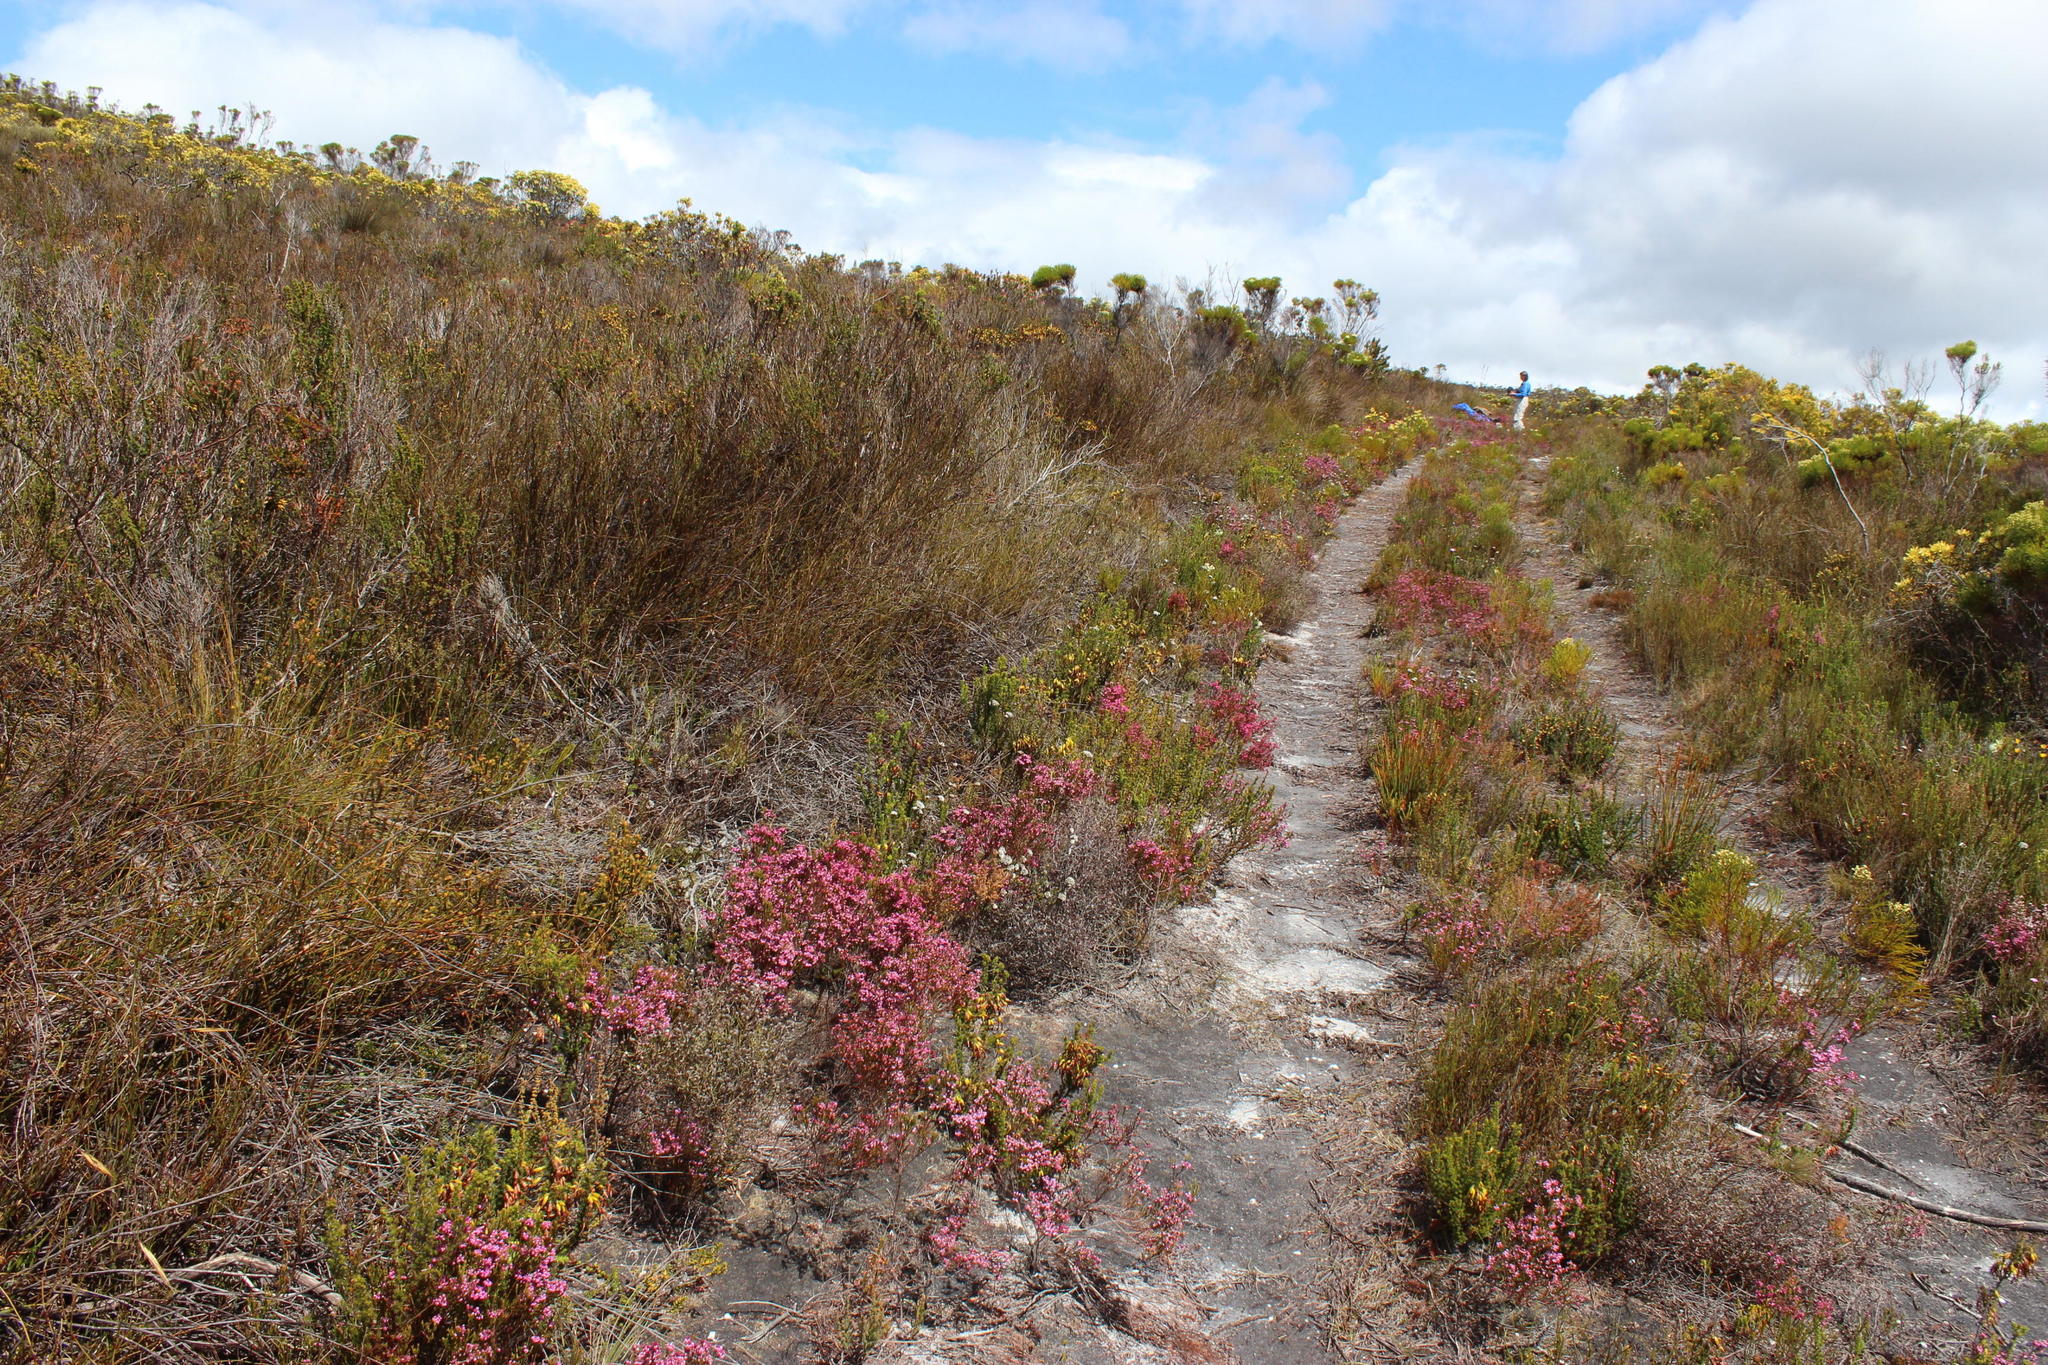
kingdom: Plantae
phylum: Tracheophyta
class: Magnoliopsida
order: Ericales
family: Ericaceae
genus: Erica
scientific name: Erica corifolia
